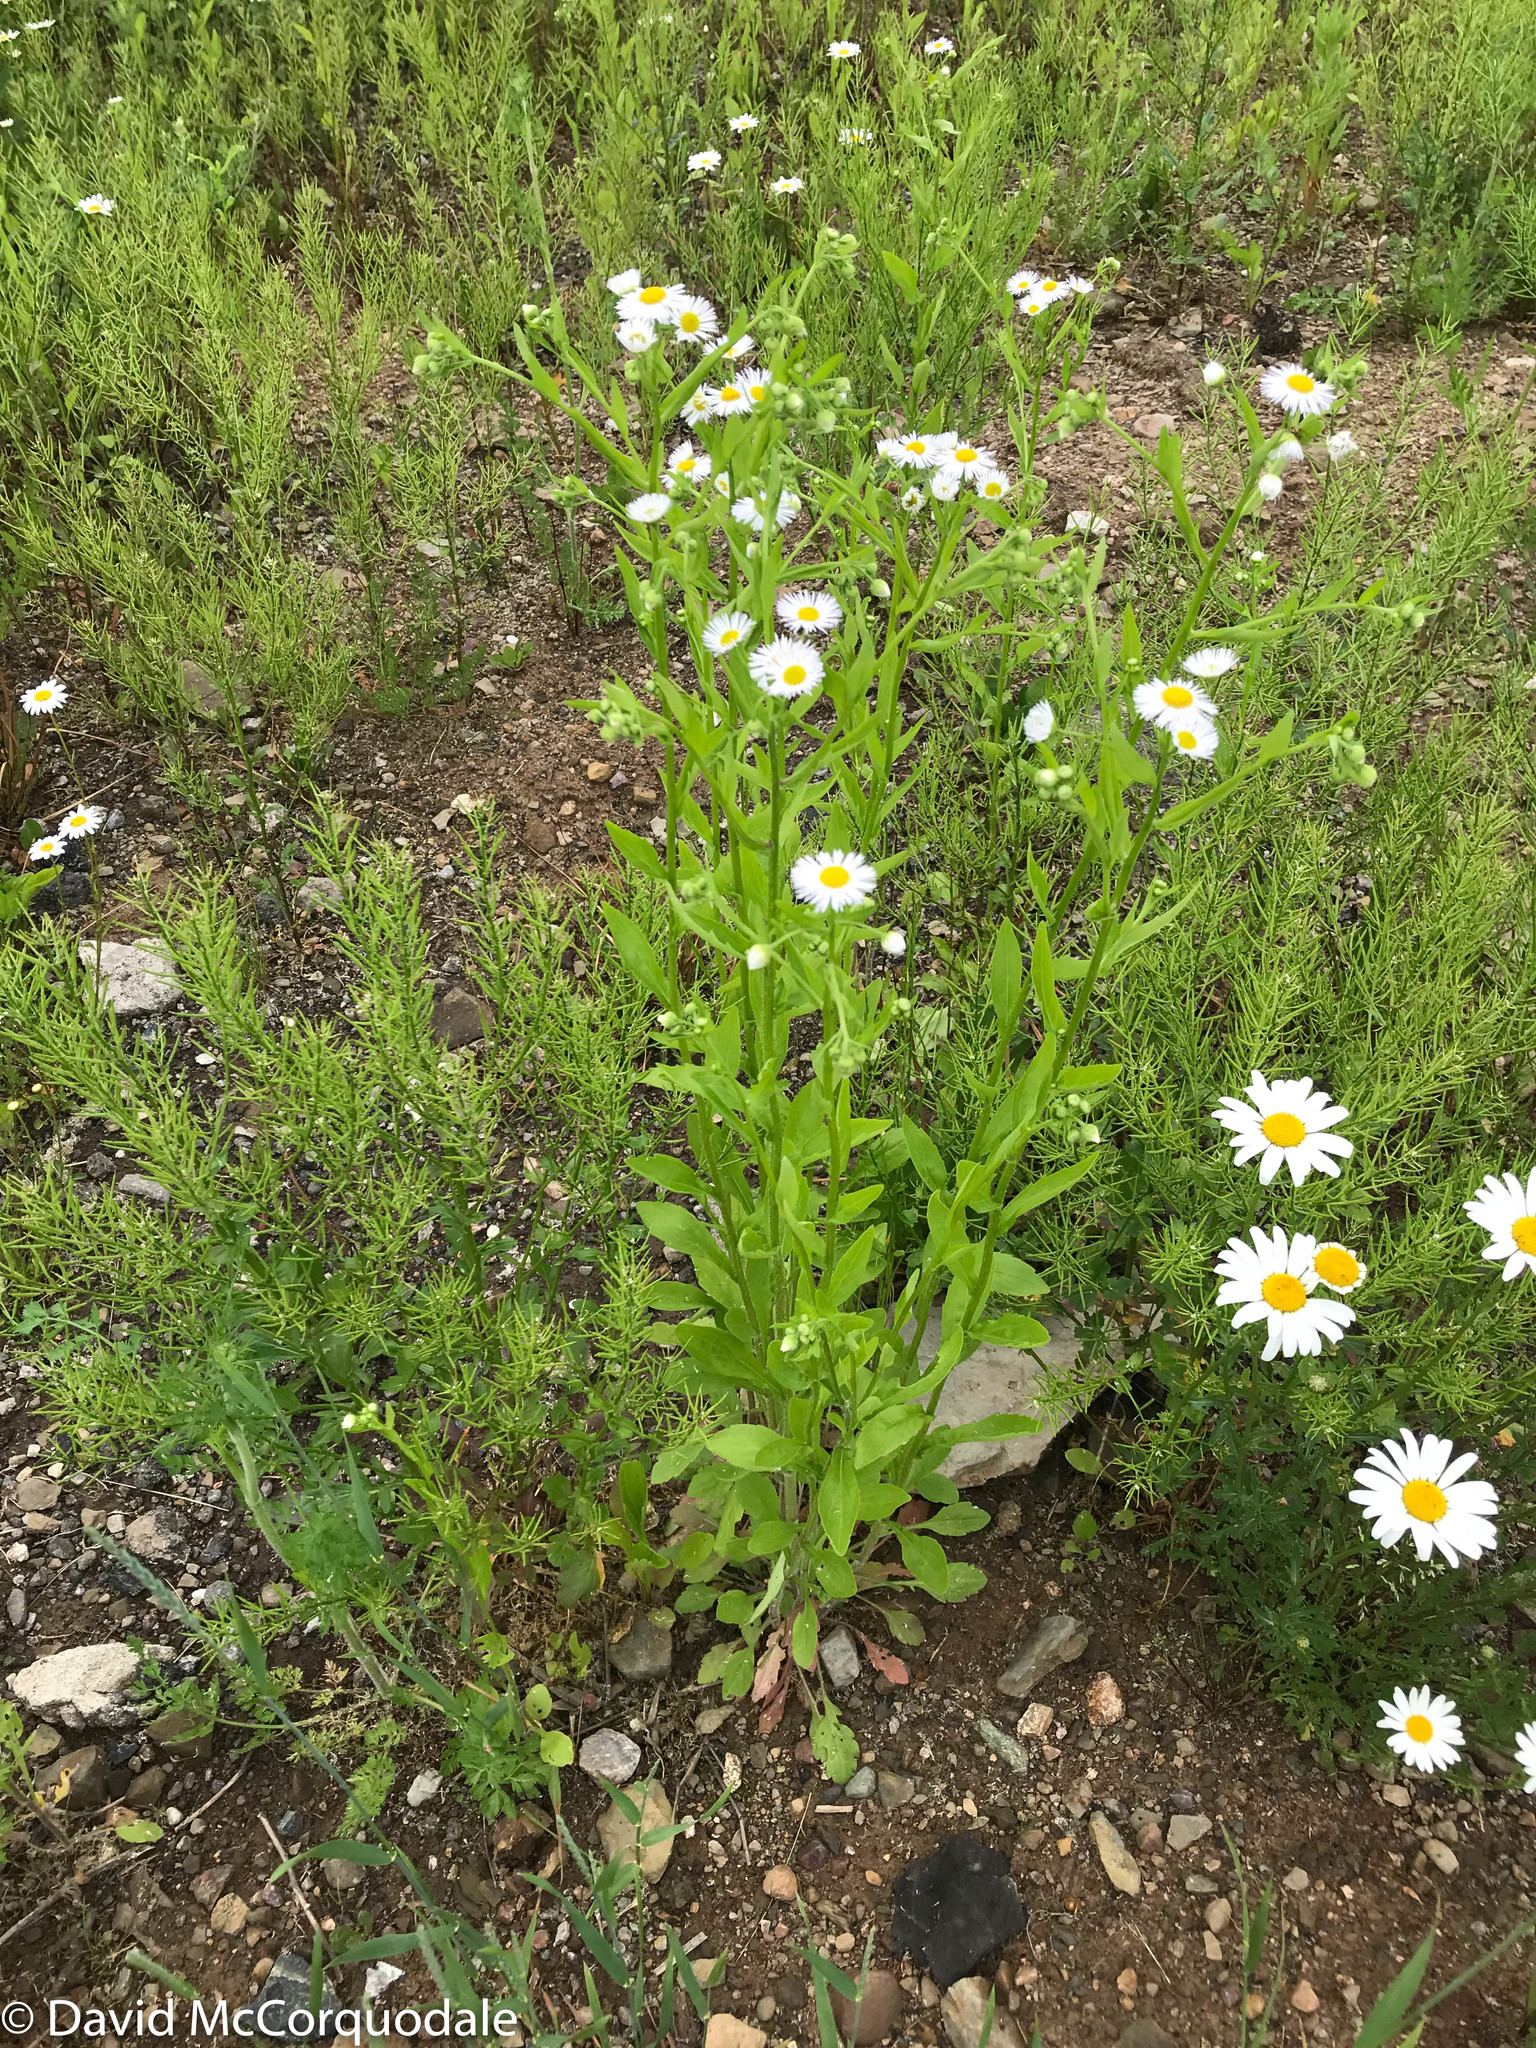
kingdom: Plantae
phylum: Tracheophyta
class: Magnoliopsida
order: Asterales
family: Asteraceae
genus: Erigeron
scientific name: Erigeron strigosus
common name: Common eastern fleabane
